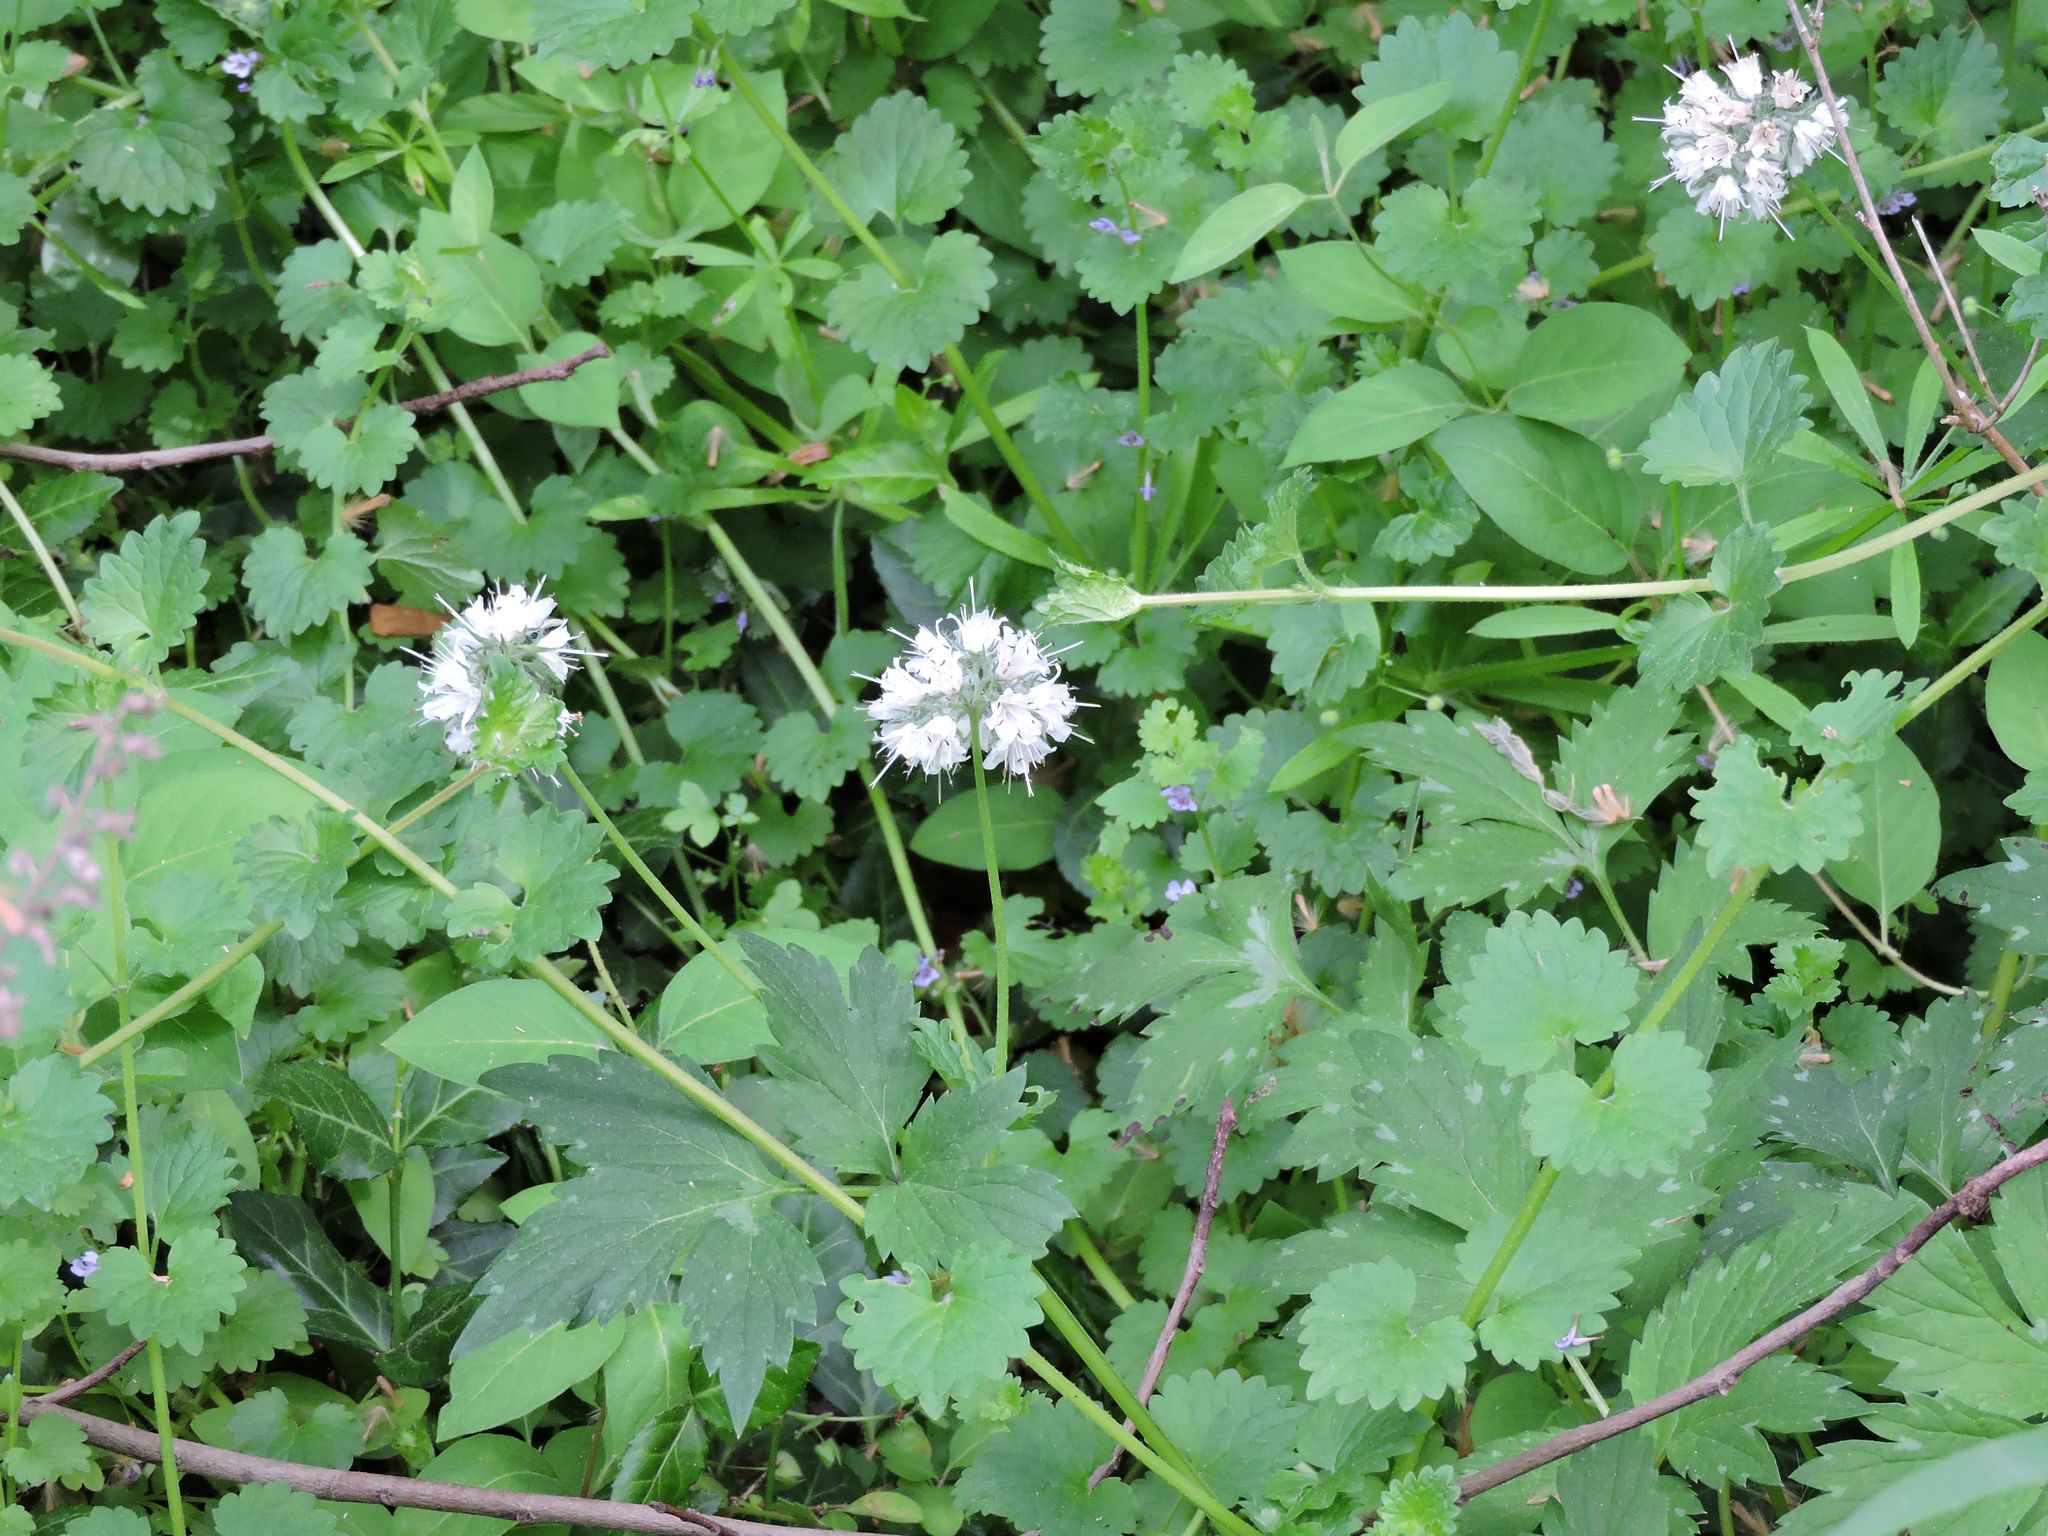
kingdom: Plantae
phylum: Tracheophyta
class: Magnoliopsida
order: Boraginales
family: Hydrophyllaceae
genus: Hydrophyllum
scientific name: Hydrophyllum virginianum
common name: Virginia waterleaf
